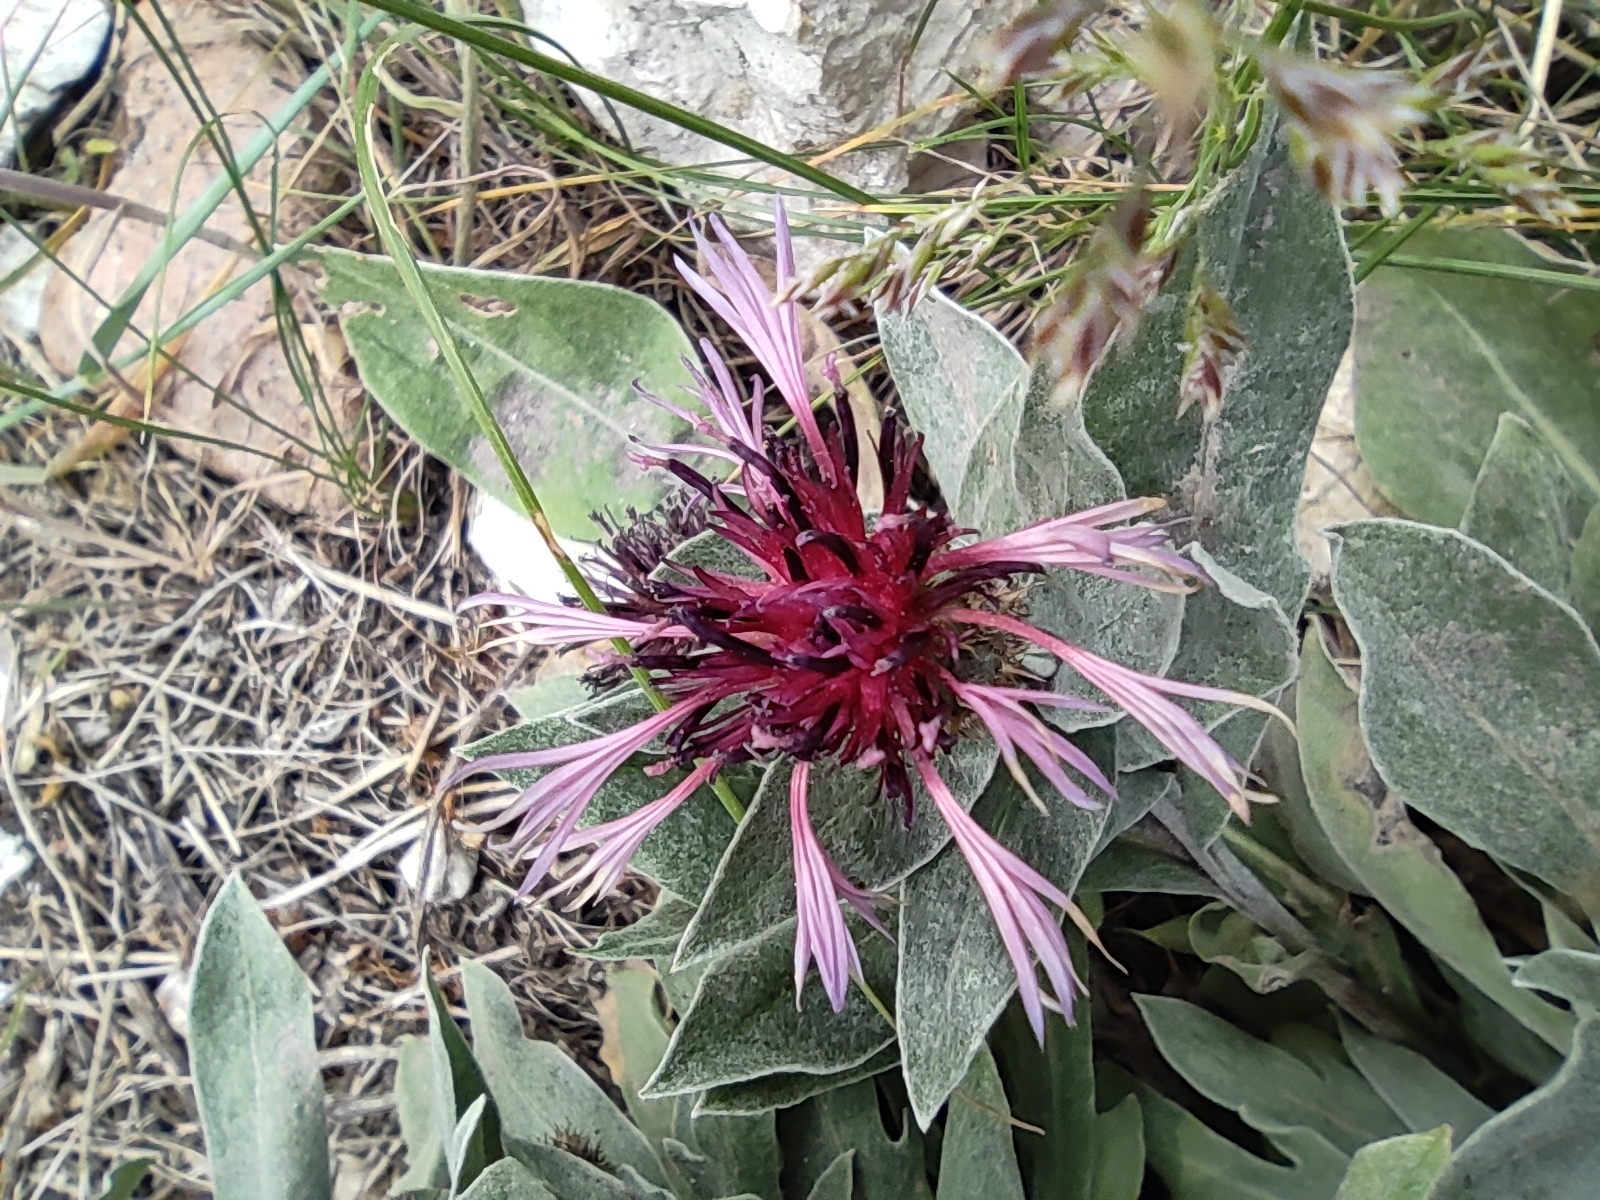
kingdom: Plantae
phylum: Tracheophyta
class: Magnoliopsida
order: Asterales
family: Asteraceae
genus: Centaurea
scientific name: Centaurea triumfettii
